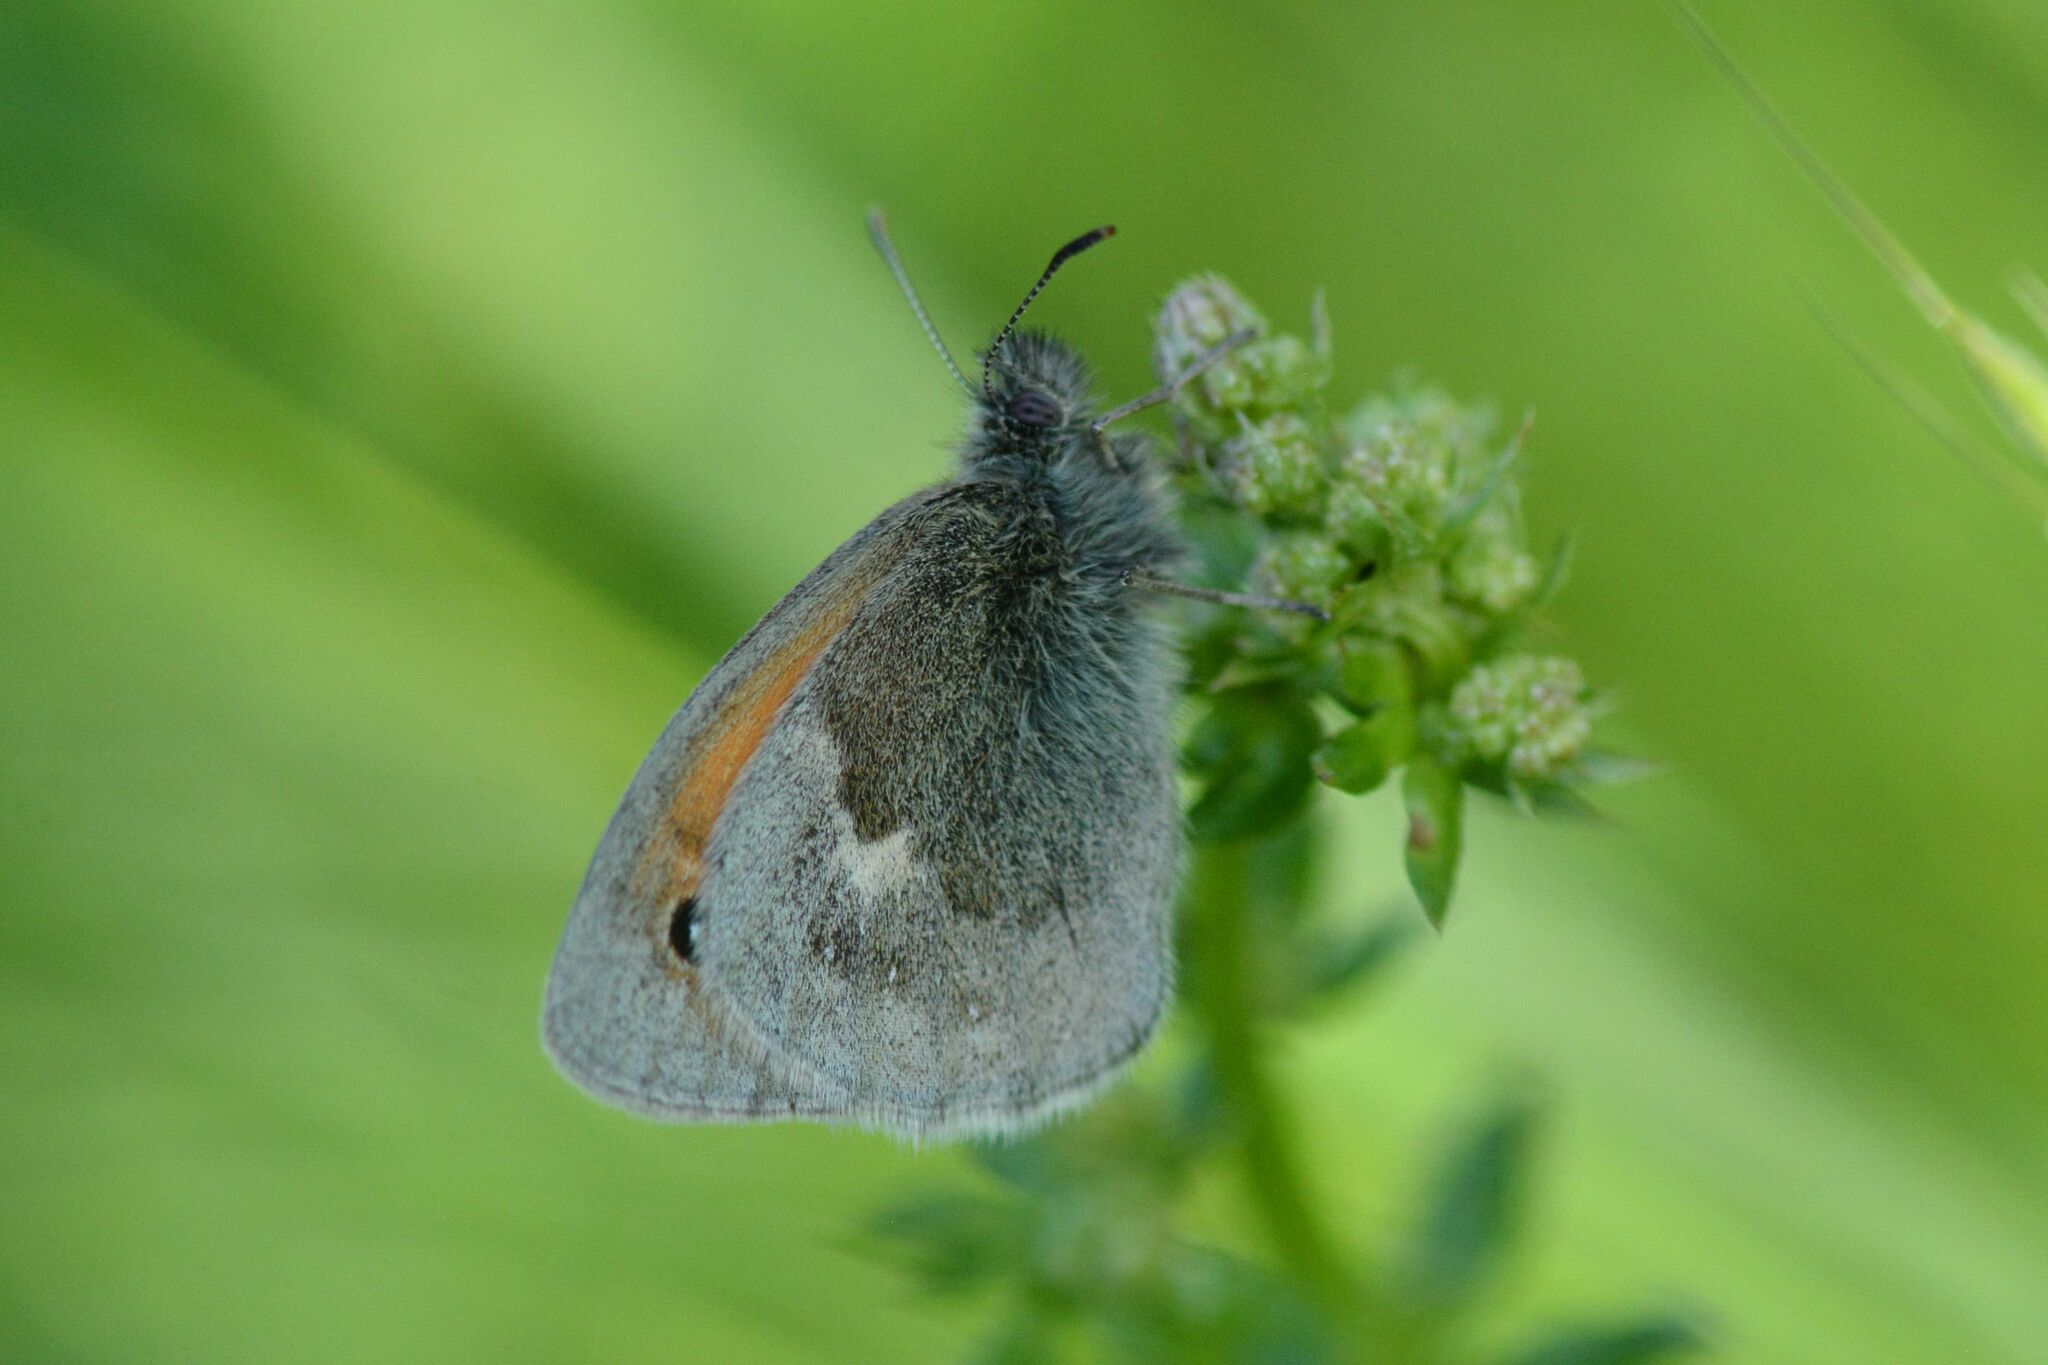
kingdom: Animalia
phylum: Arthropoda
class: Insecta
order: Lepidoptera
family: Nymphalidae
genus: Coenonympha
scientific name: Coenonympha pamphilus
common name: Small heath
